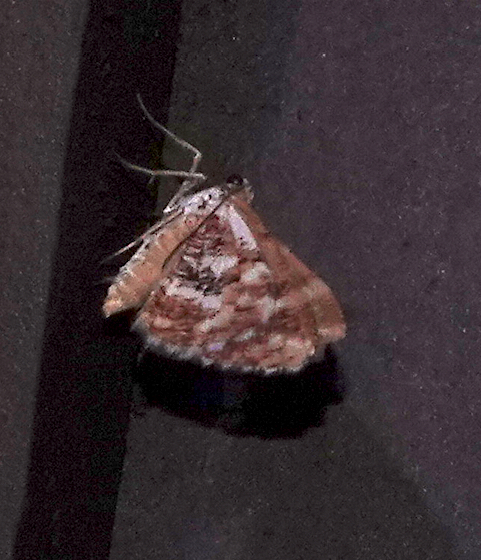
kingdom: Animalia
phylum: Arthropoda
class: Insecta
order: Lepidoptera
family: Geometridae
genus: Stamnodes
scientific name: Stamnodes formosata
